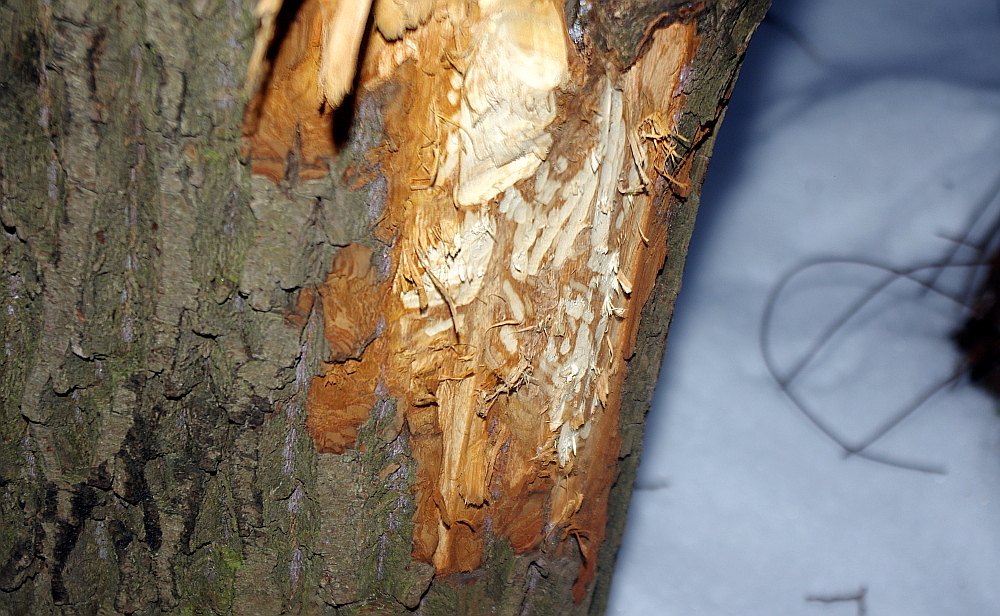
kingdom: Animalia
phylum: Chordata
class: Mammalia
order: Rodentia
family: Castoridae
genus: Castor
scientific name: Castor fiber
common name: Eurasian beaver
